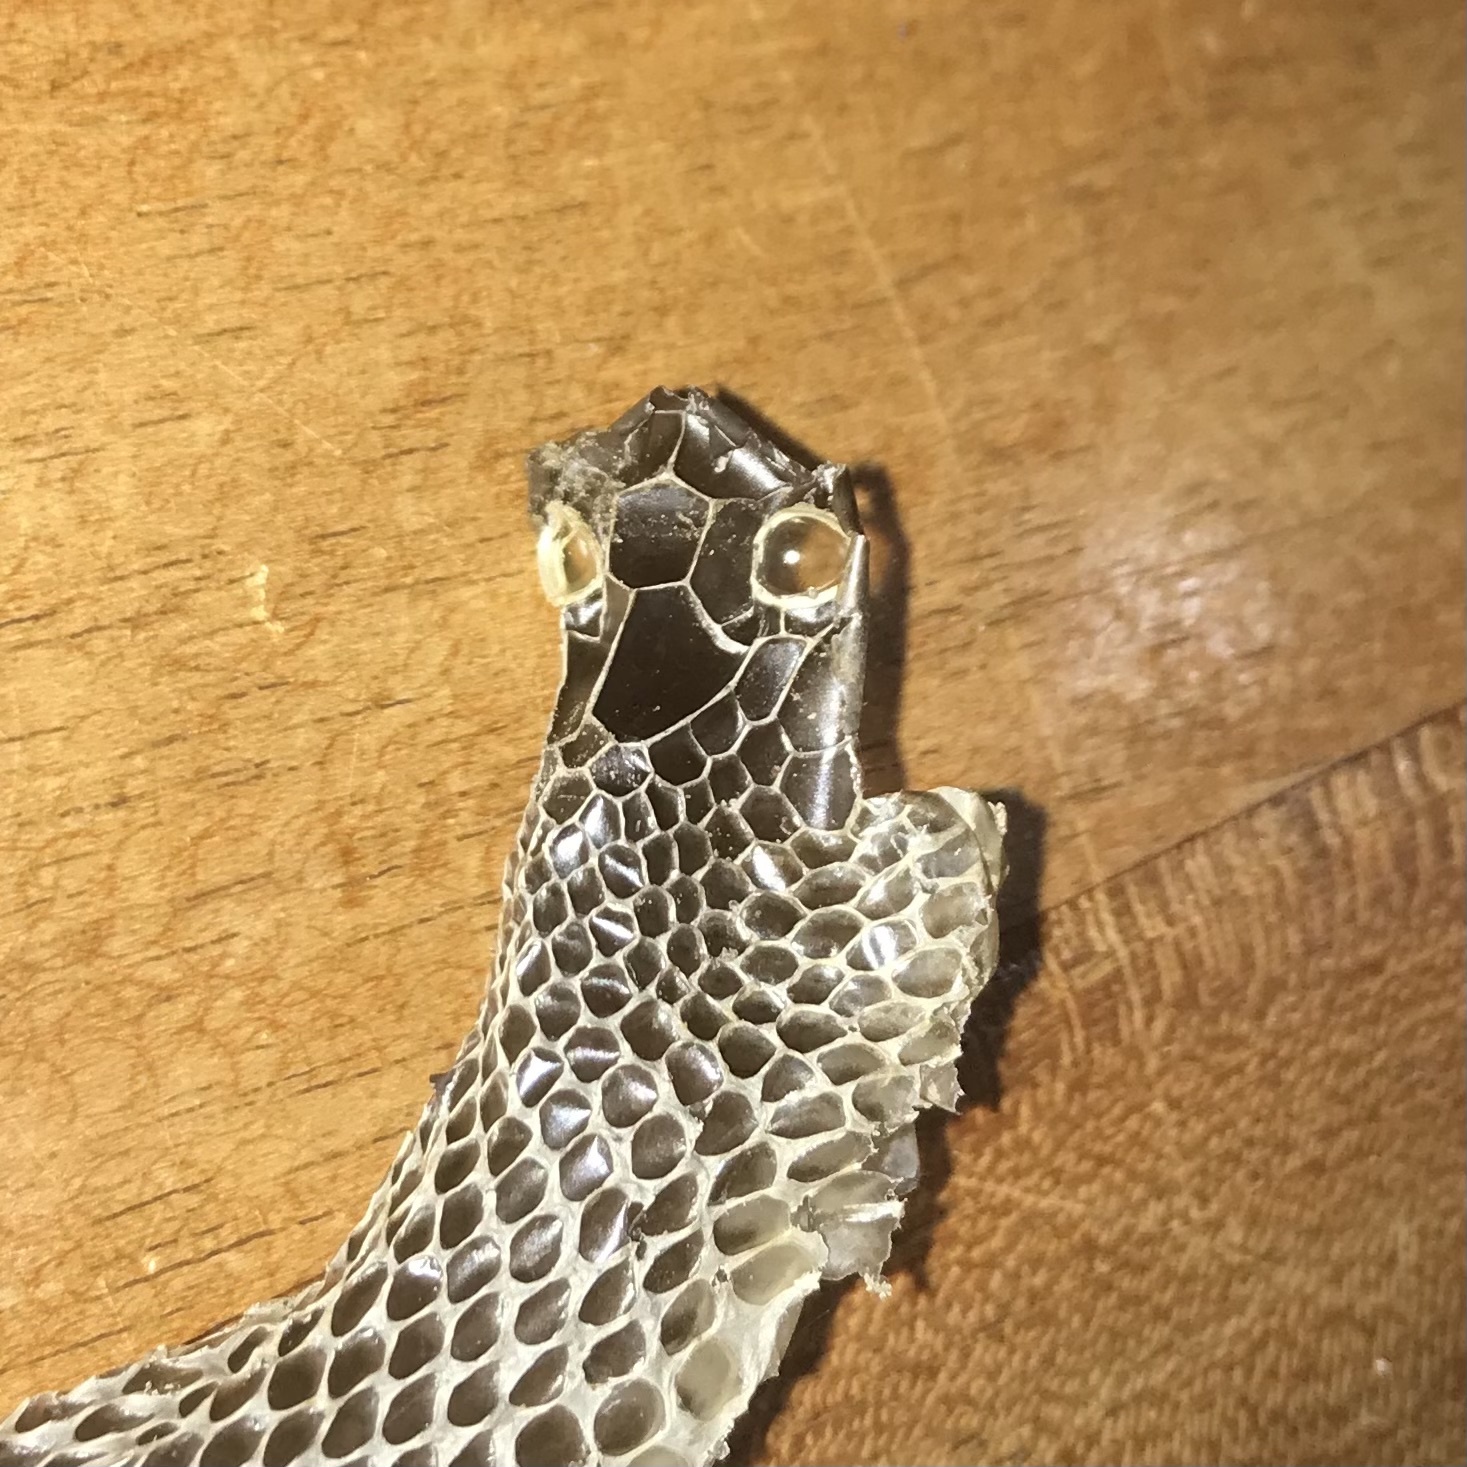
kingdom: Animalia
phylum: Chordata
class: Squamata
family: Elapidae
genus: Pseudechis
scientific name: Pseudechis porphyriacus
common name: Australian black snake
